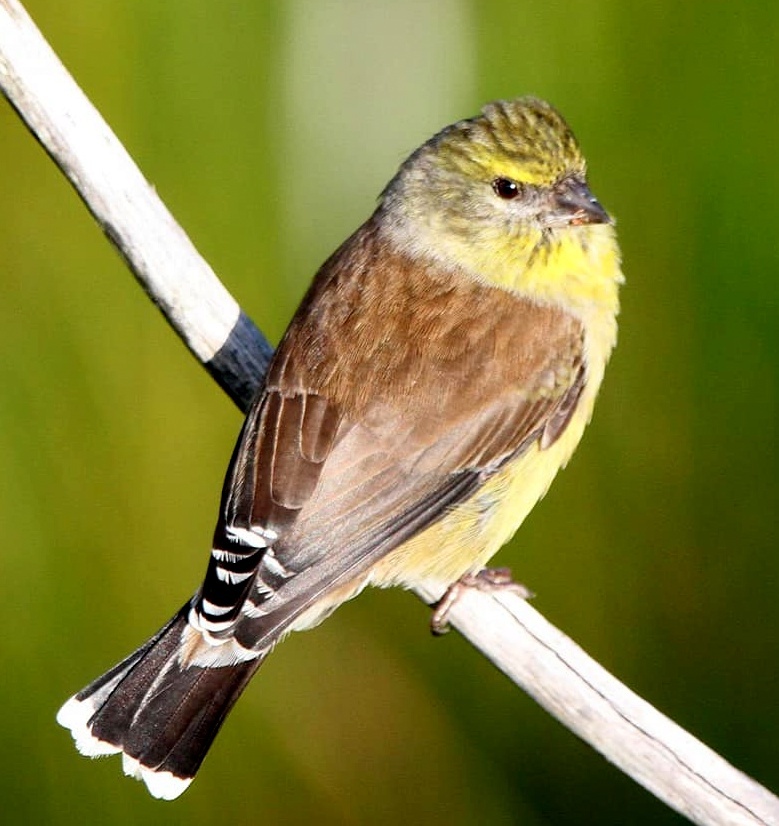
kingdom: Animalia
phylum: Chordata
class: Aves
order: Passeriformes
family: Fringillidae
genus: Crithagra
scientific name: Crithagra totta
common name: Cape siskin
